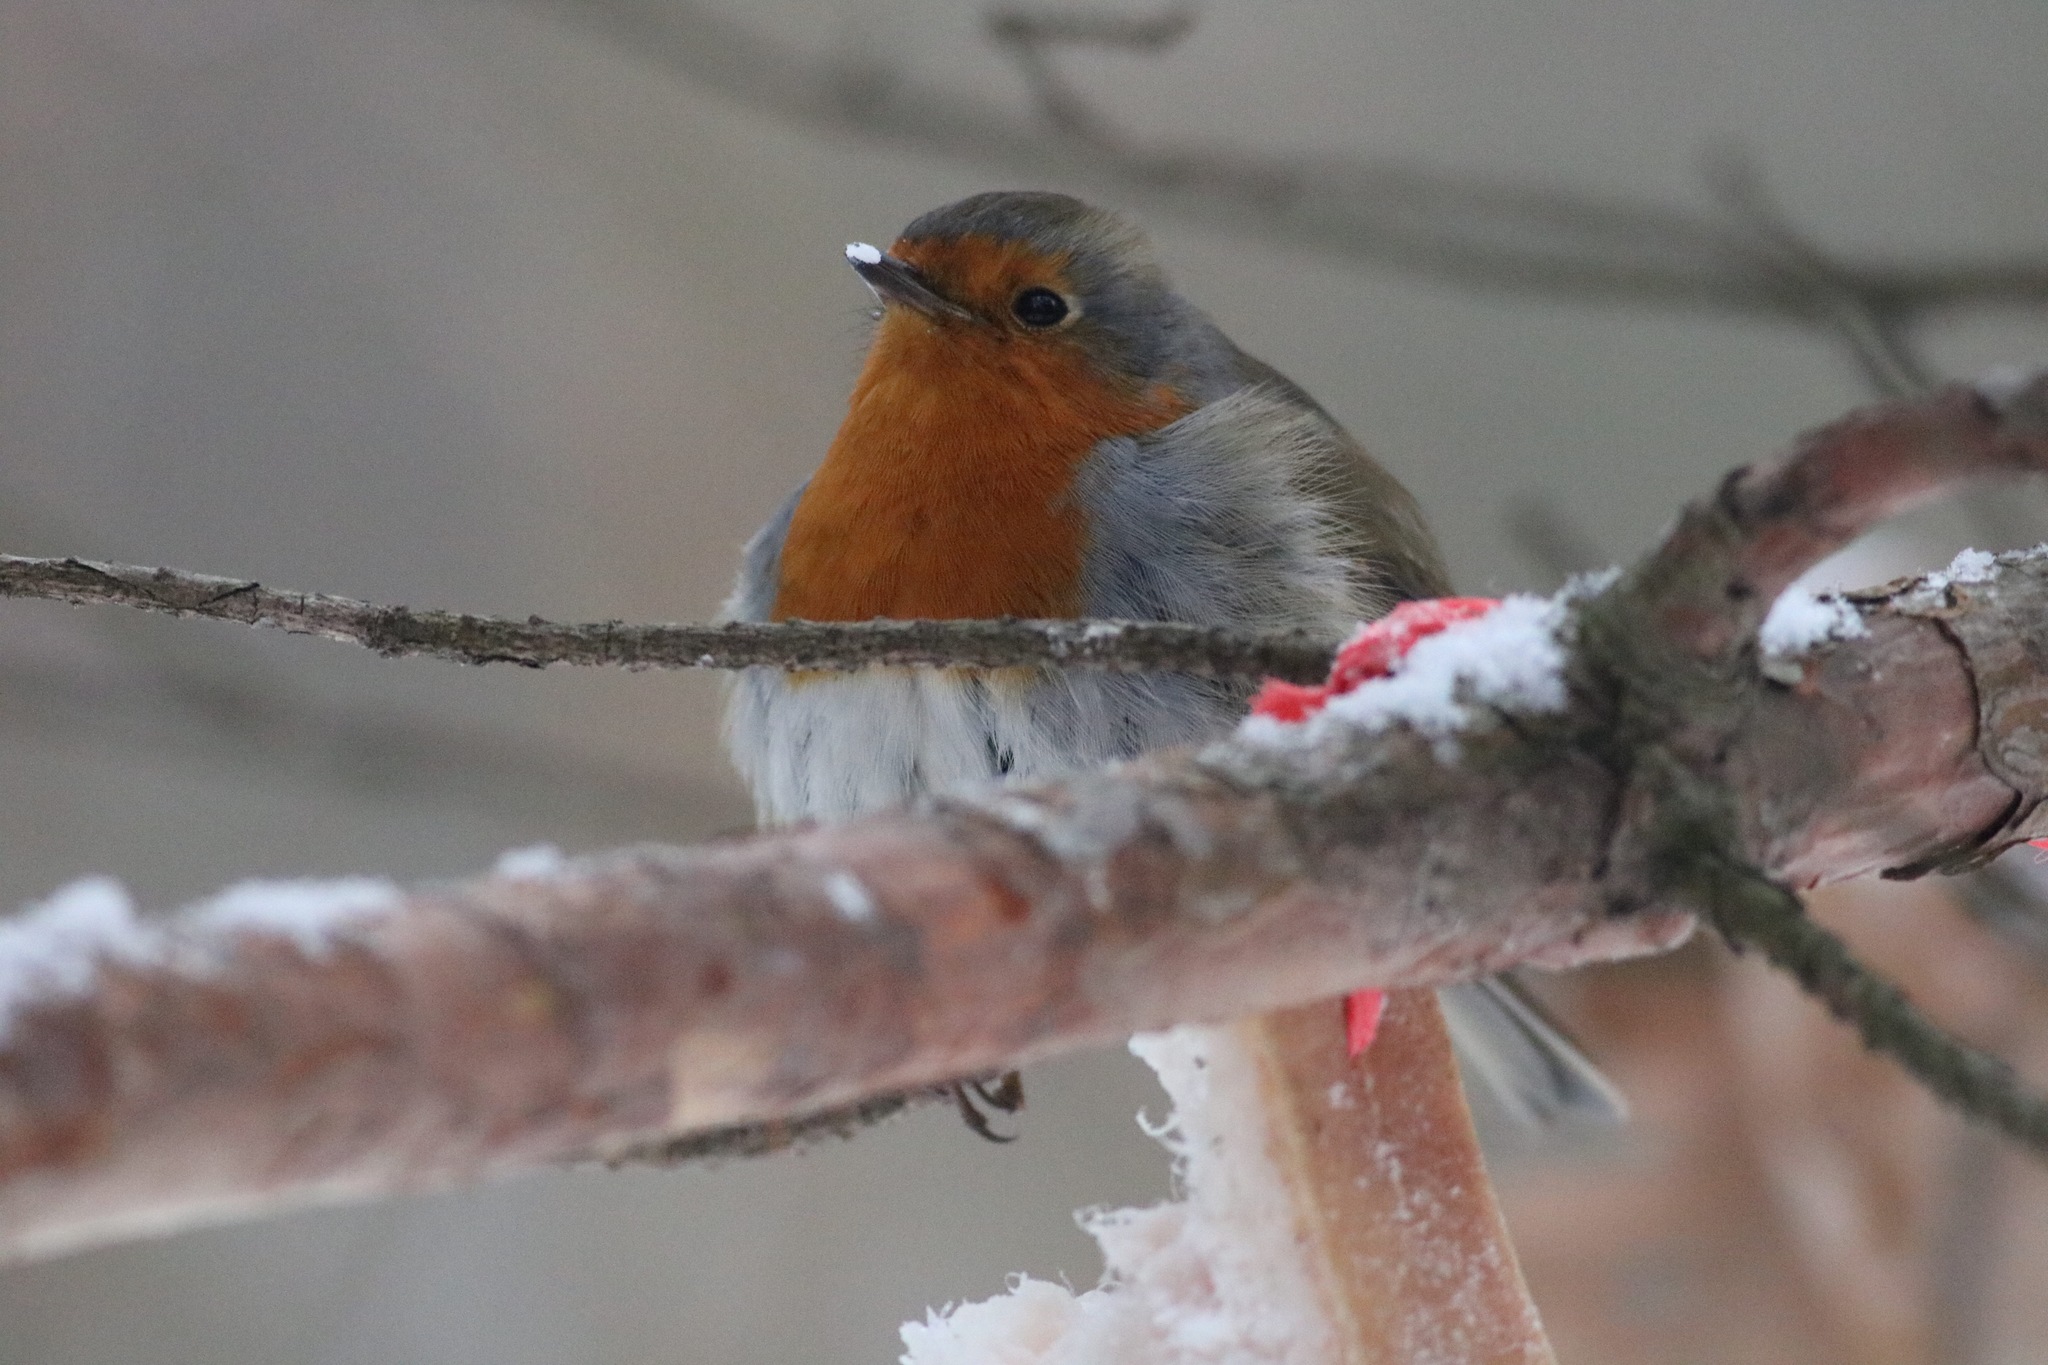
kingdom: Animalia
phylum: Chordata
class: Aves
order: Passeriformes
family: Muscicapidae
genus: Erithacus
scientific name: Erithacus rubecula
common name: European robin
